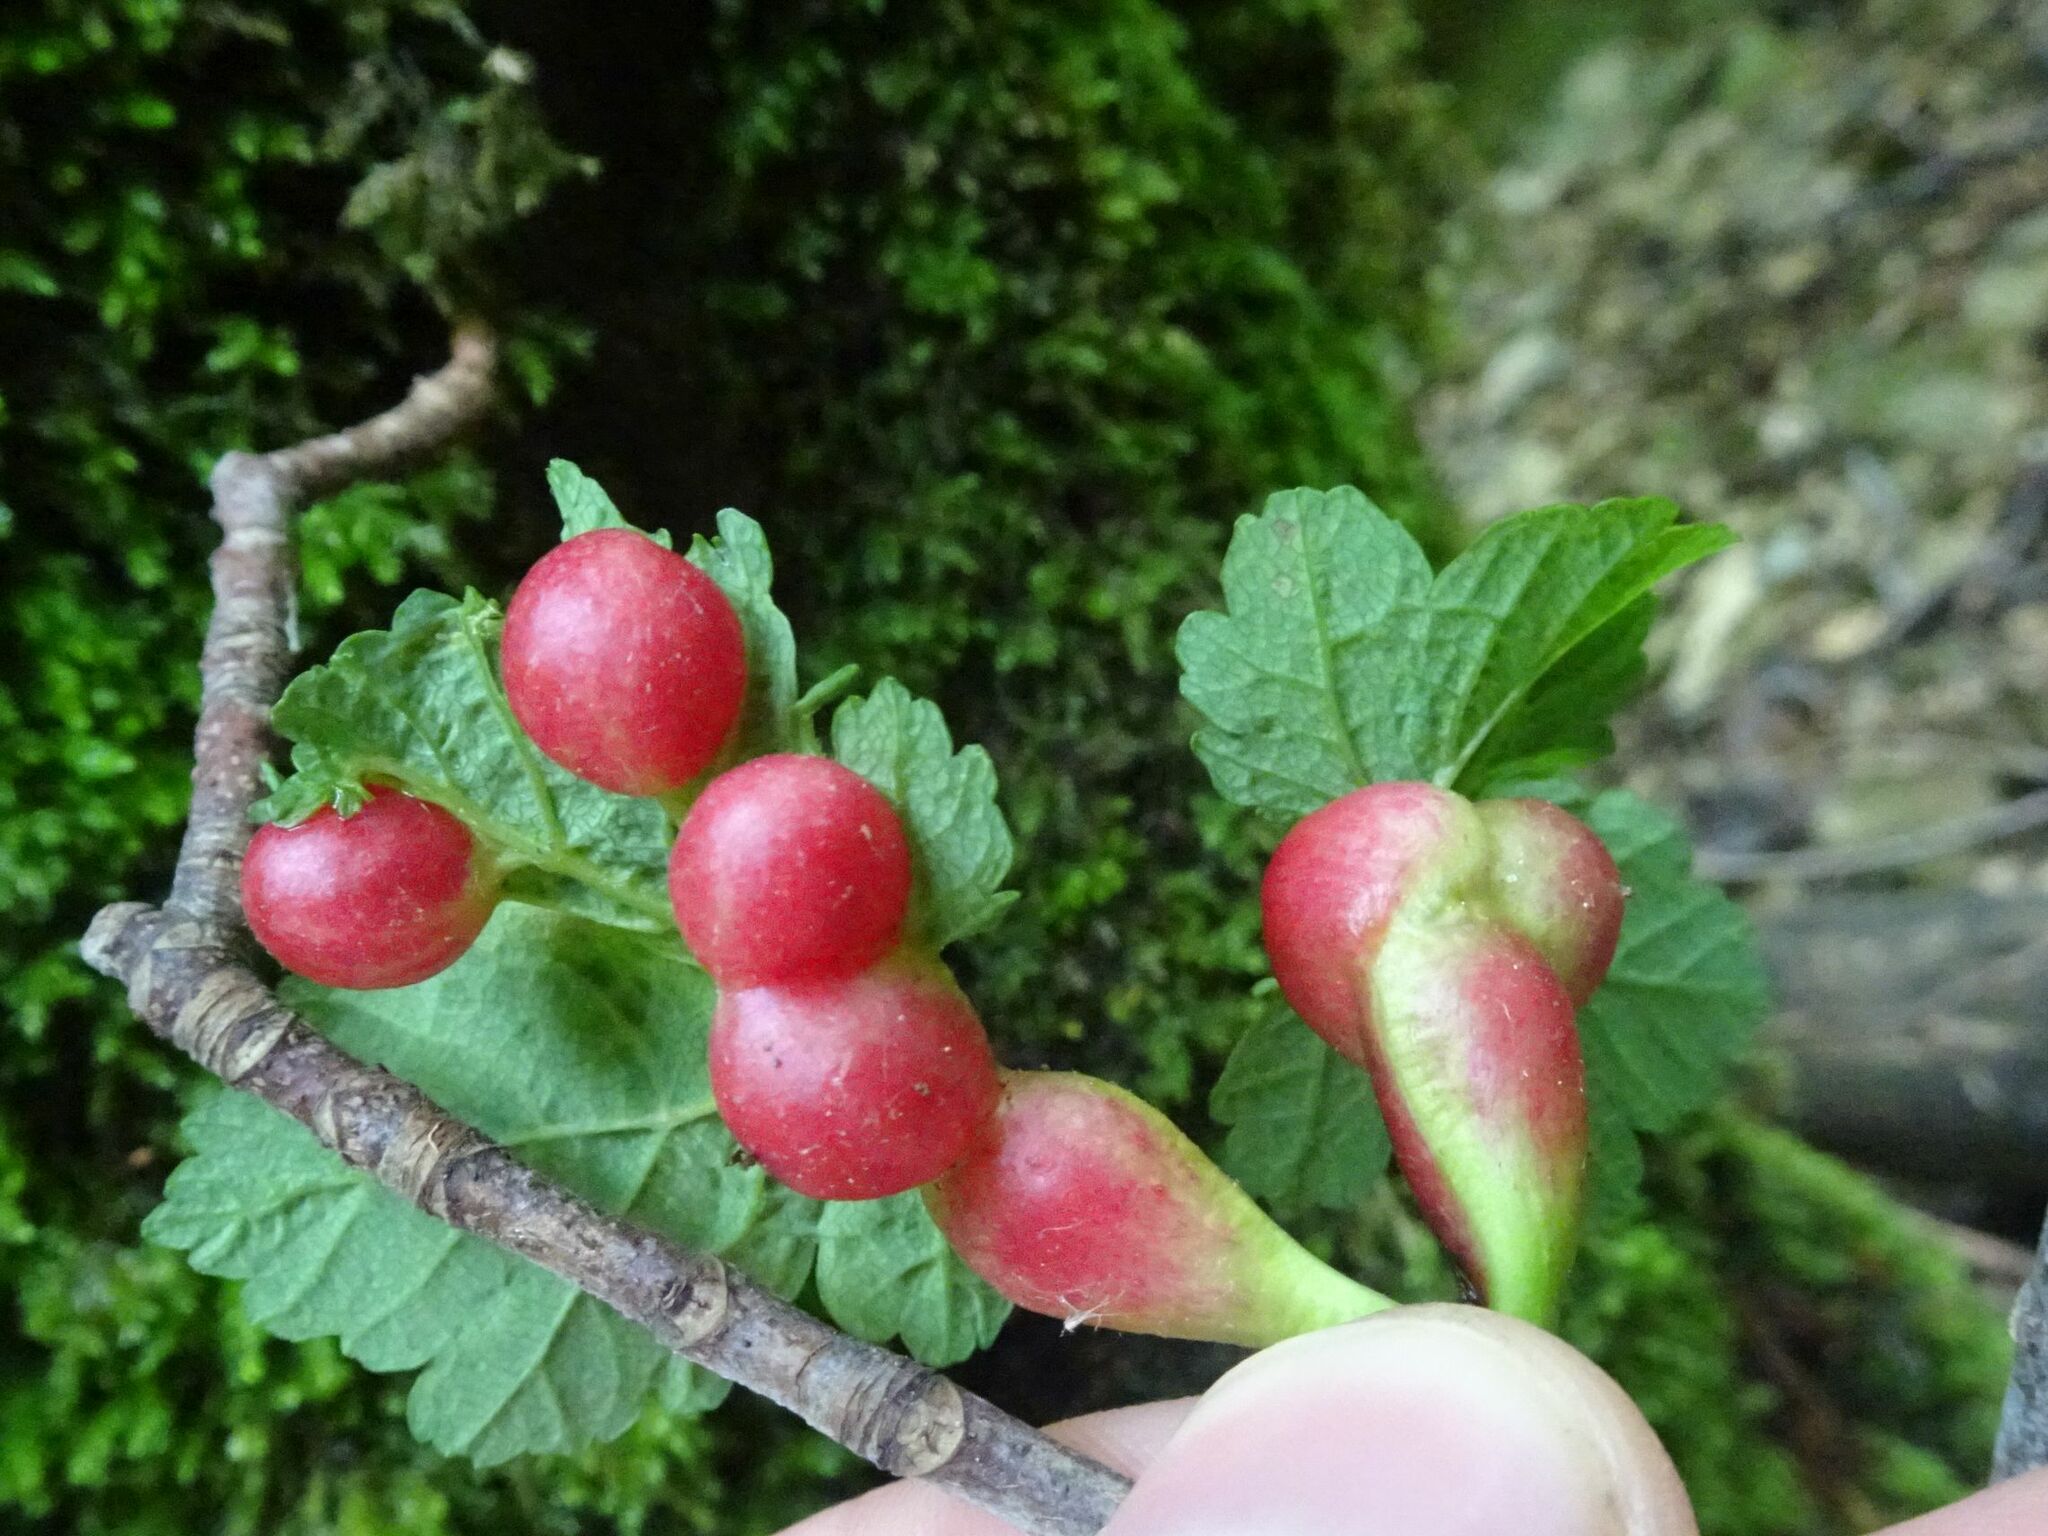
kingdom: Animalia
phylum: Arthropoda
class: Insecta
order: Hymenoptera
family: Cynipidae
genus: Pediaspis
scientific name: Pediaspis aceris
